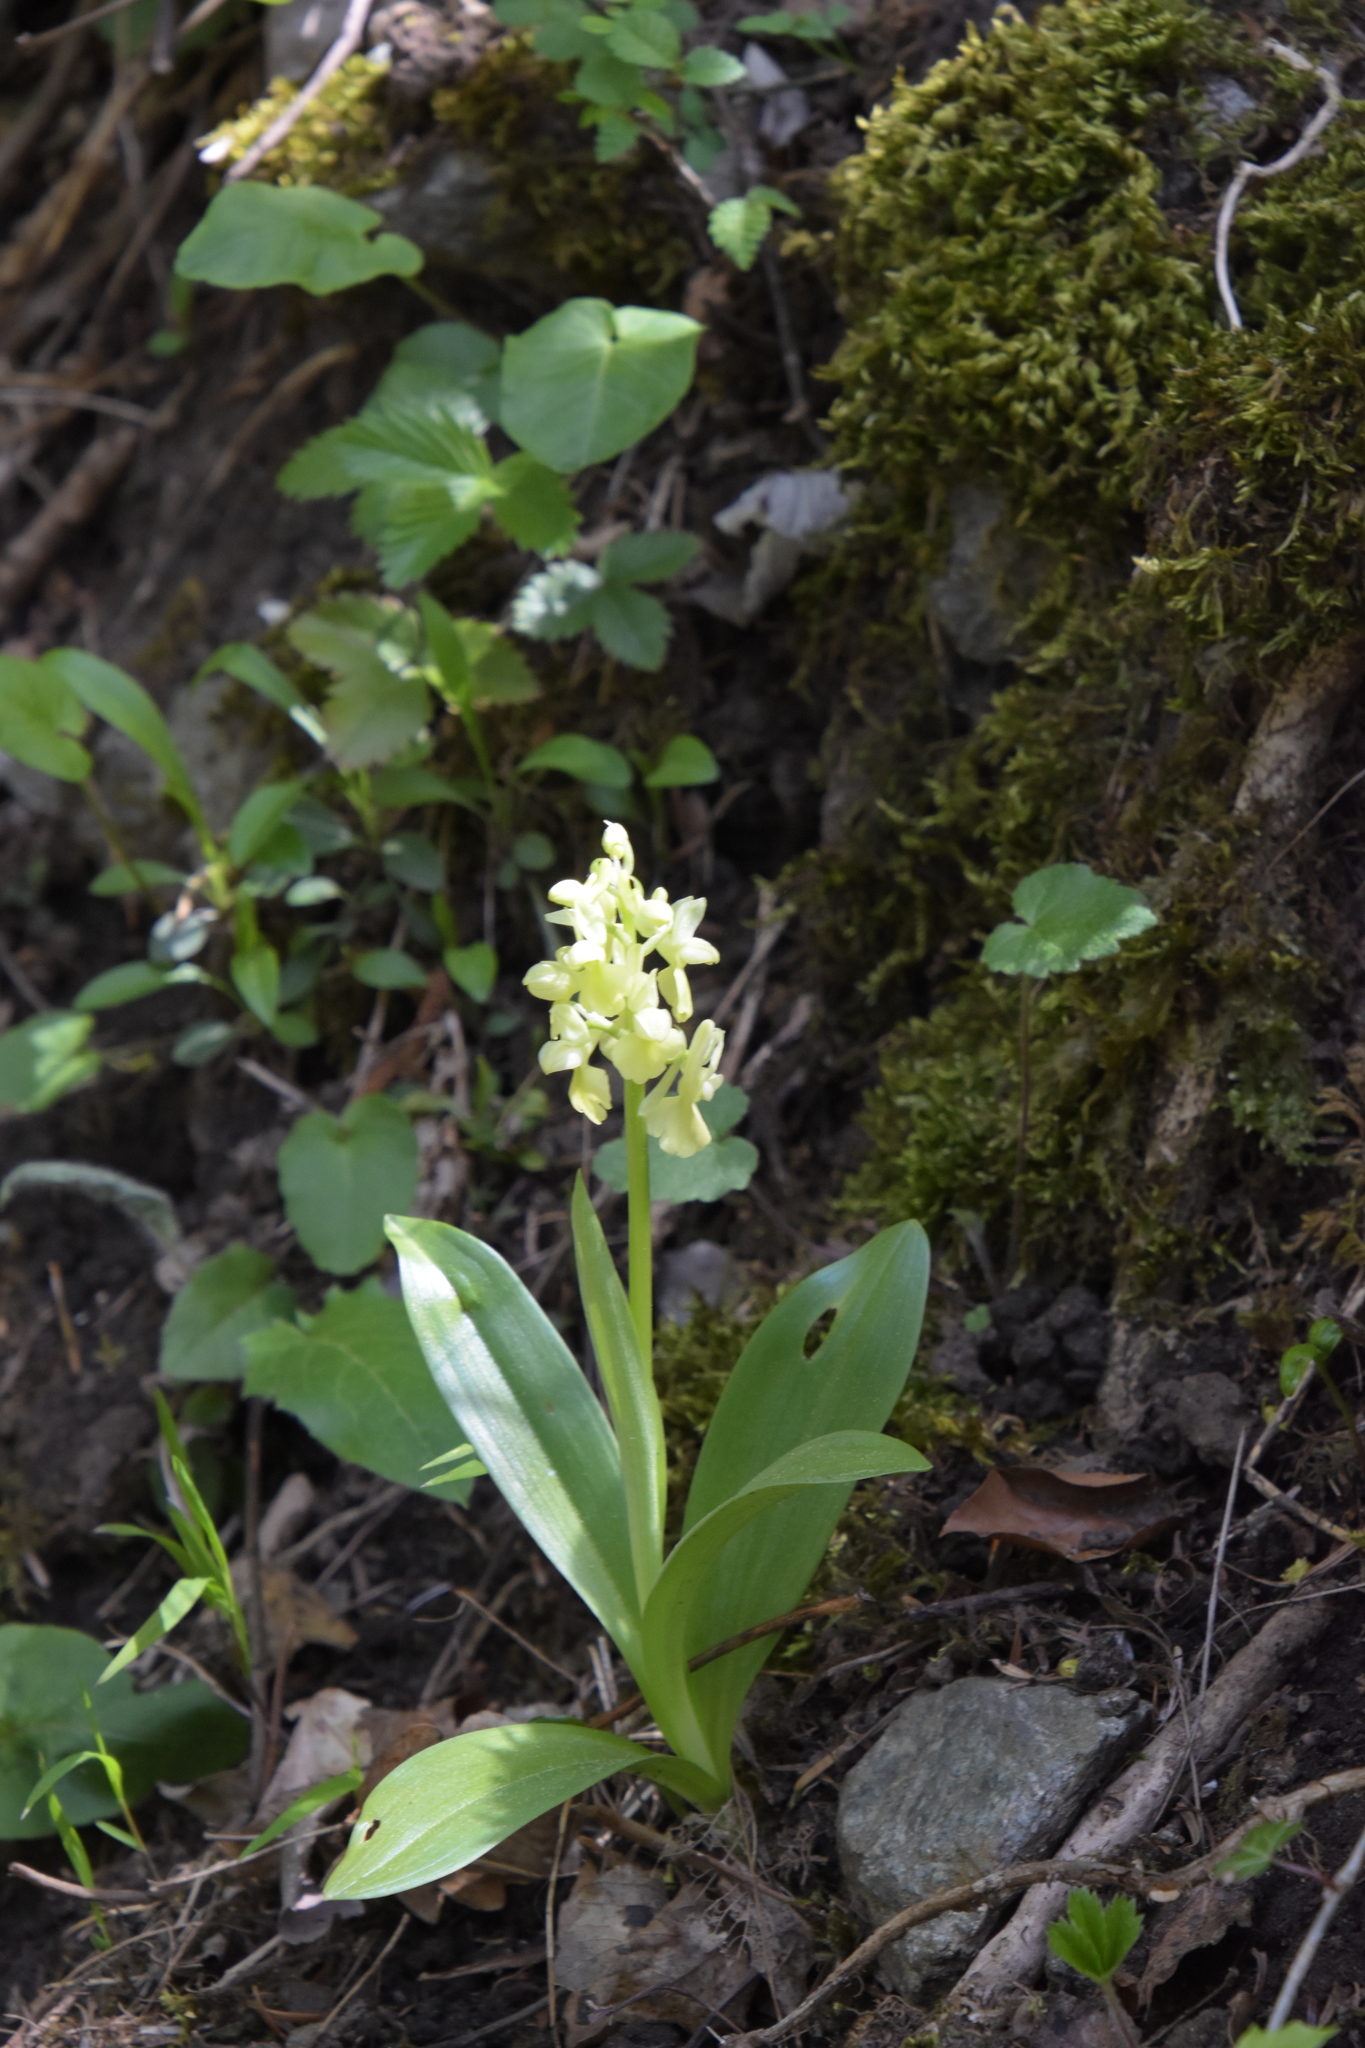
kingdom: Plantae
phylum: Tracheophyta
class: Liliopsida
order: Asparagales
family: Orchidaceae
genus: Orchis
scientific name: Orchis pallens
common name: Pale-flowered orchid
